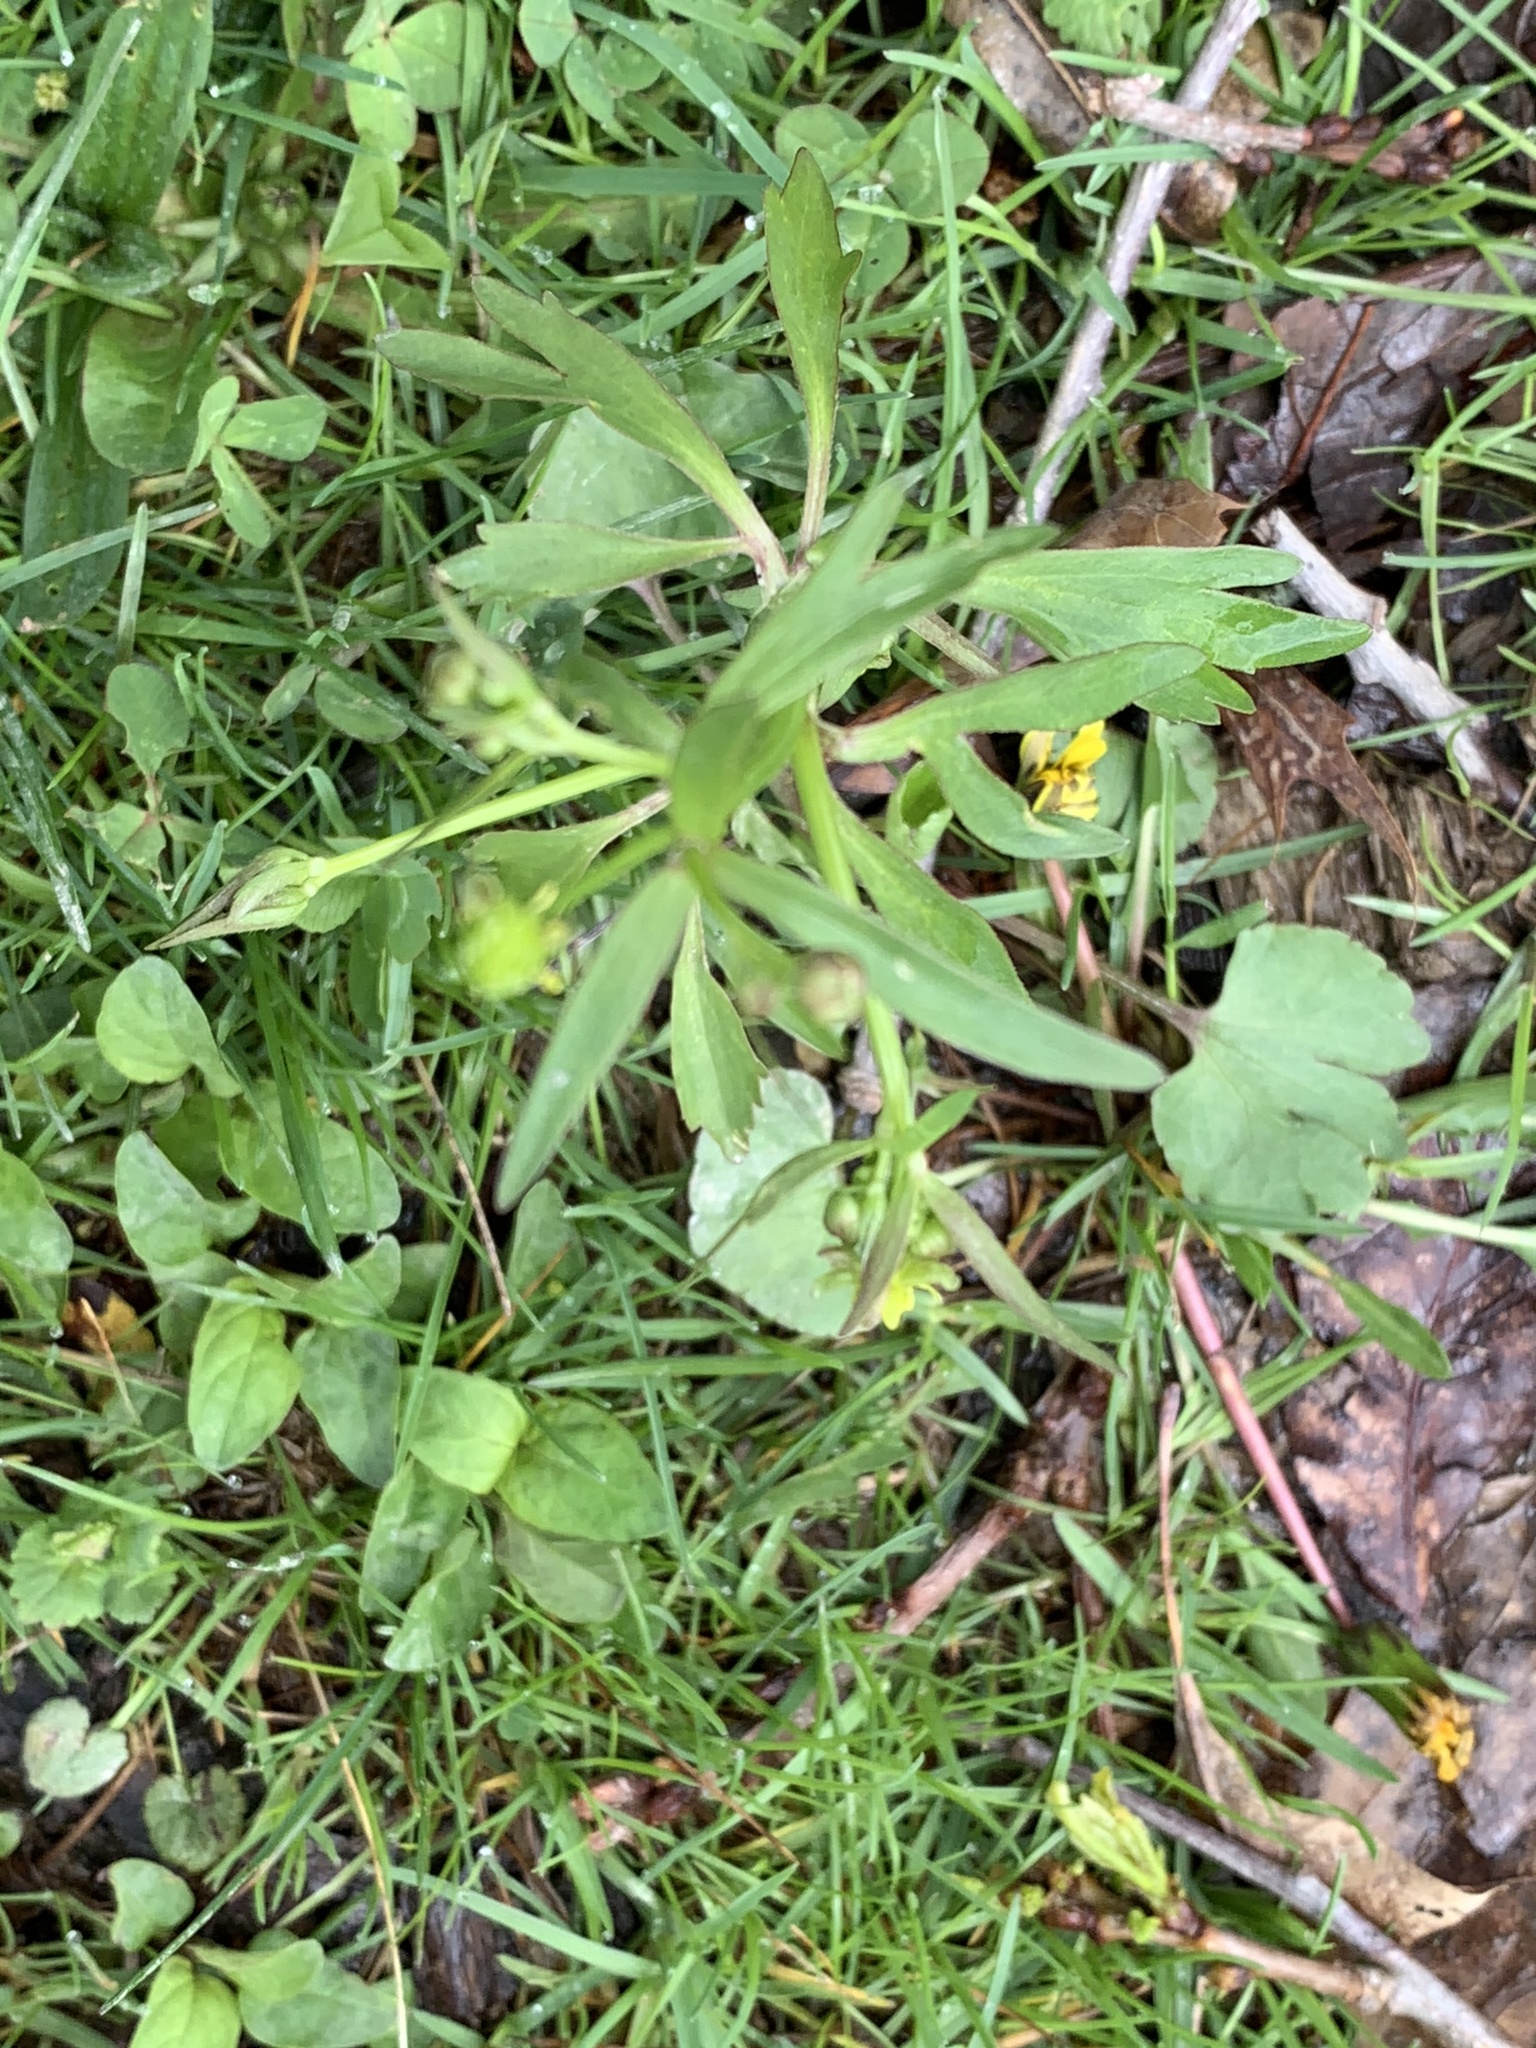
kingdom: Plantae
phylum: Tracheophyta
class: Magnoliopsida
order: Ranunculales
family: Ranunculaceae
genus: Ranunculus
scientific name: Ranunculus abortivus
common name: Early wood buttercup
